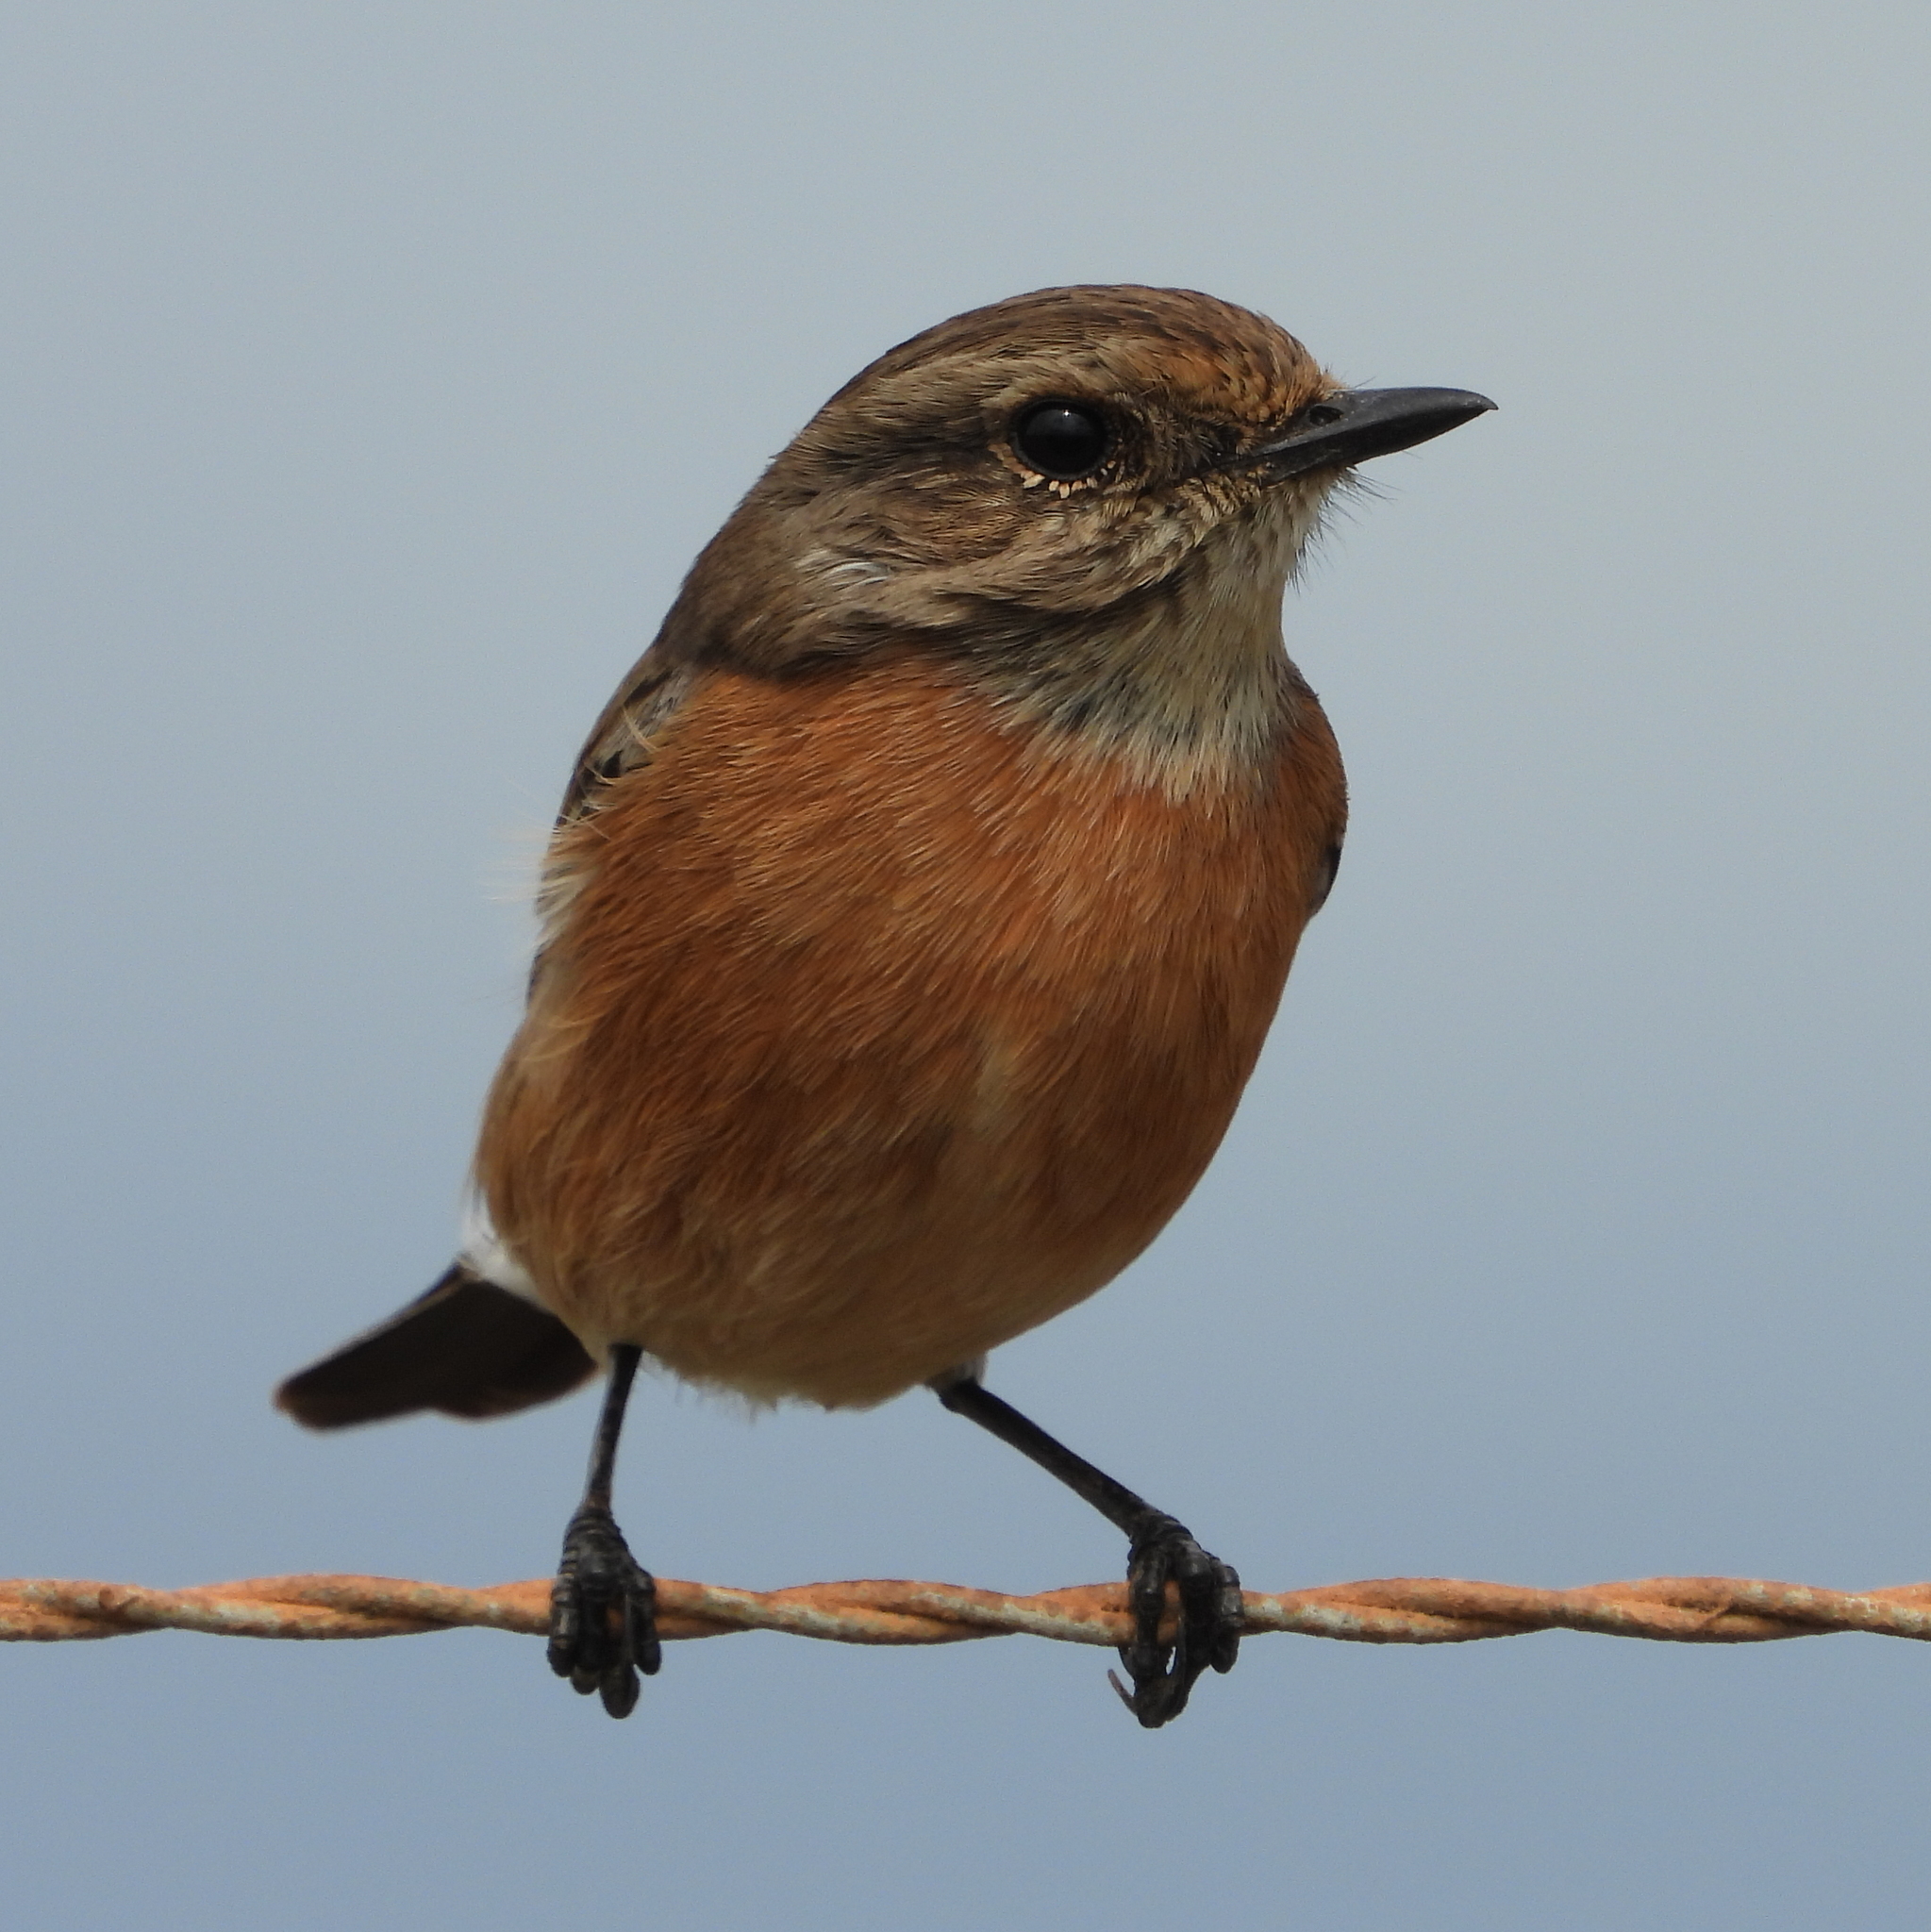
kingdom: Animalia
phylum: Chordata
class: Aves
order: Passeriformes
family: Muscicapidae
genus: Saxicola
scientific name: Saxicola torquatus
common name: African stonechat
